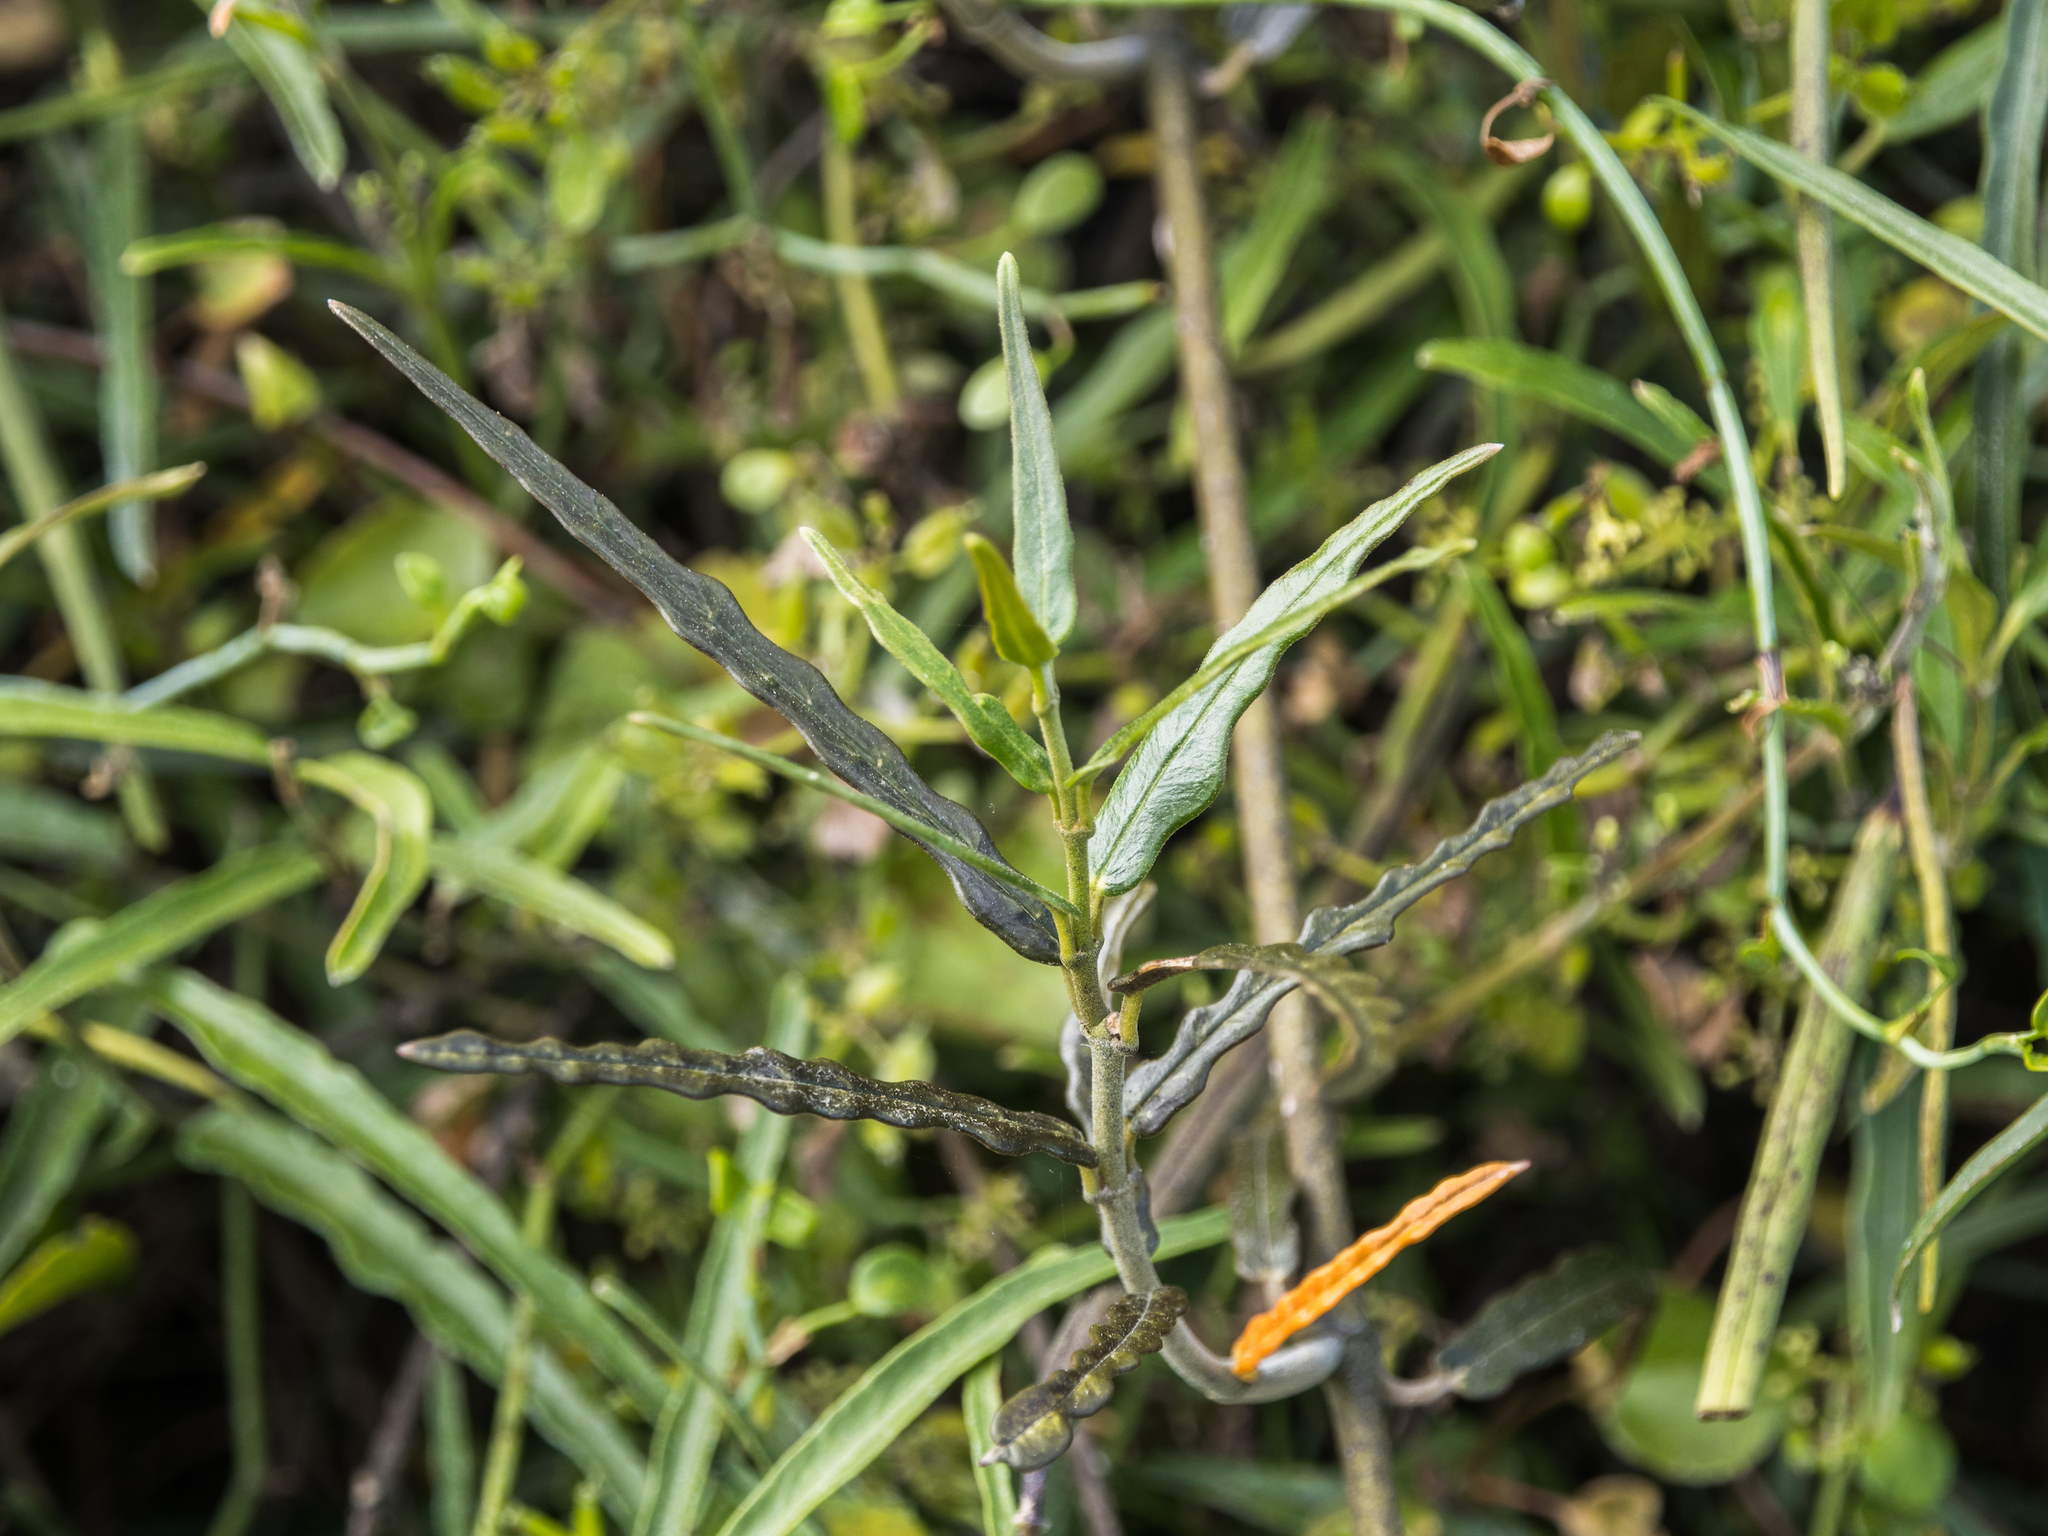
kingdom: Plantae
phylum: Tracheophyta
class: Magnoliopsida
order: Gentianales
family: Apocynaceae
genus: Parsonsia
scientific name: Parsonsia capsularis
